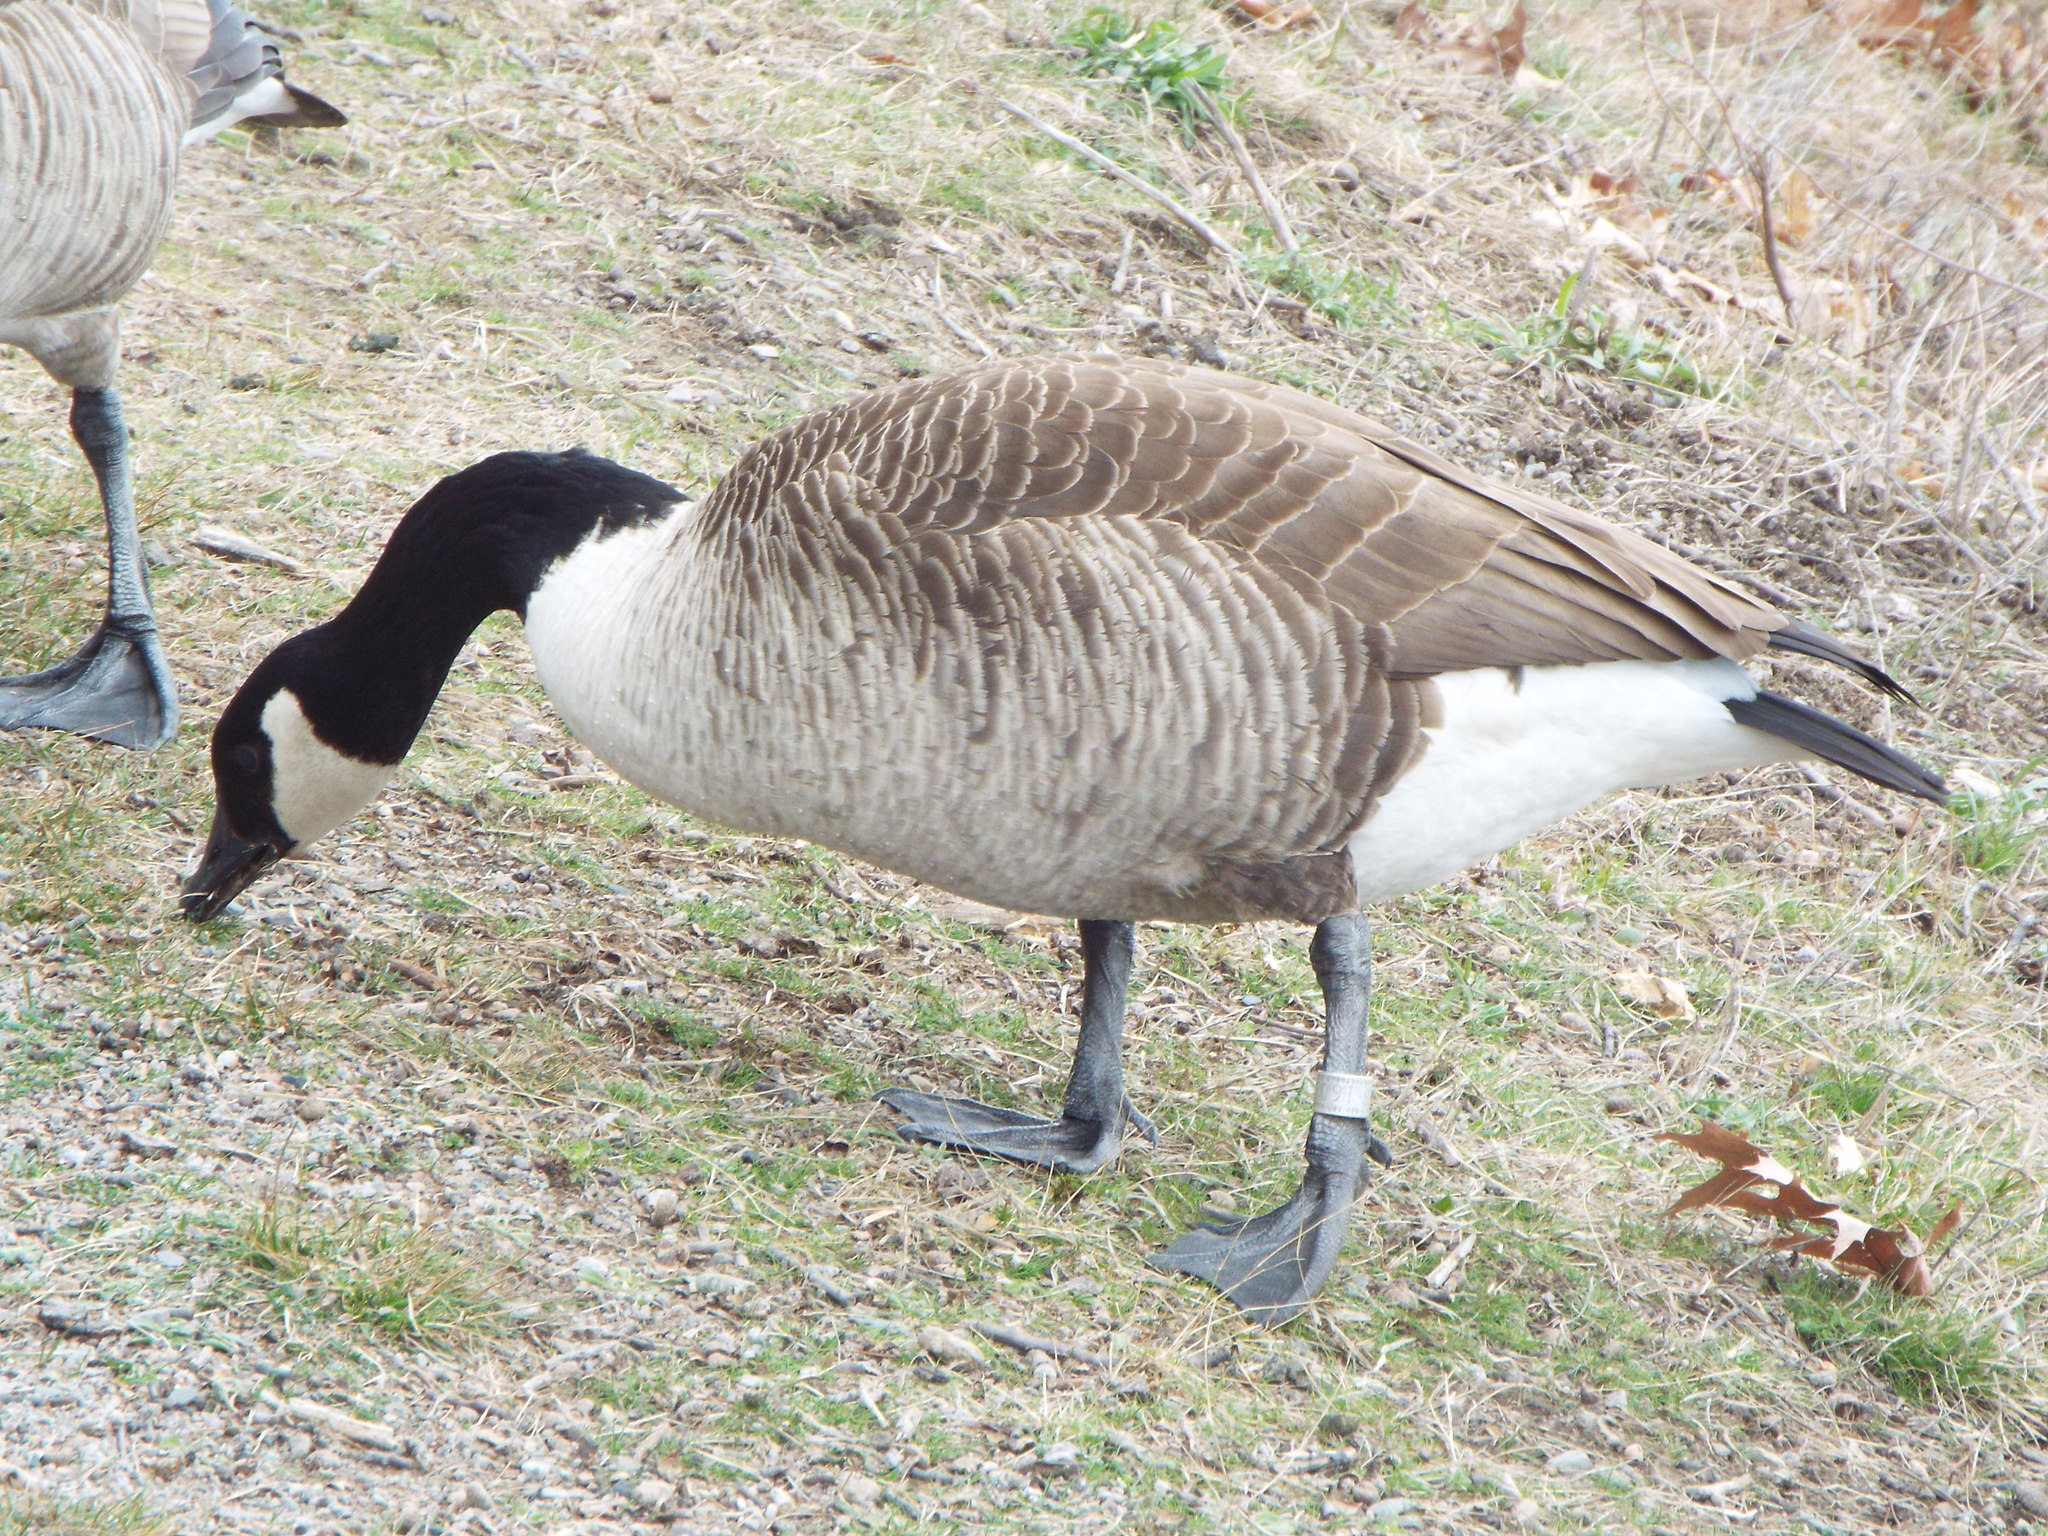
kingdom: Animalia
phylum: Chordata
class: Aves
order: Anseriformes
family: Anatidae
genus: Branta
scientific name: Branta canadensis
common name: Canada goose
